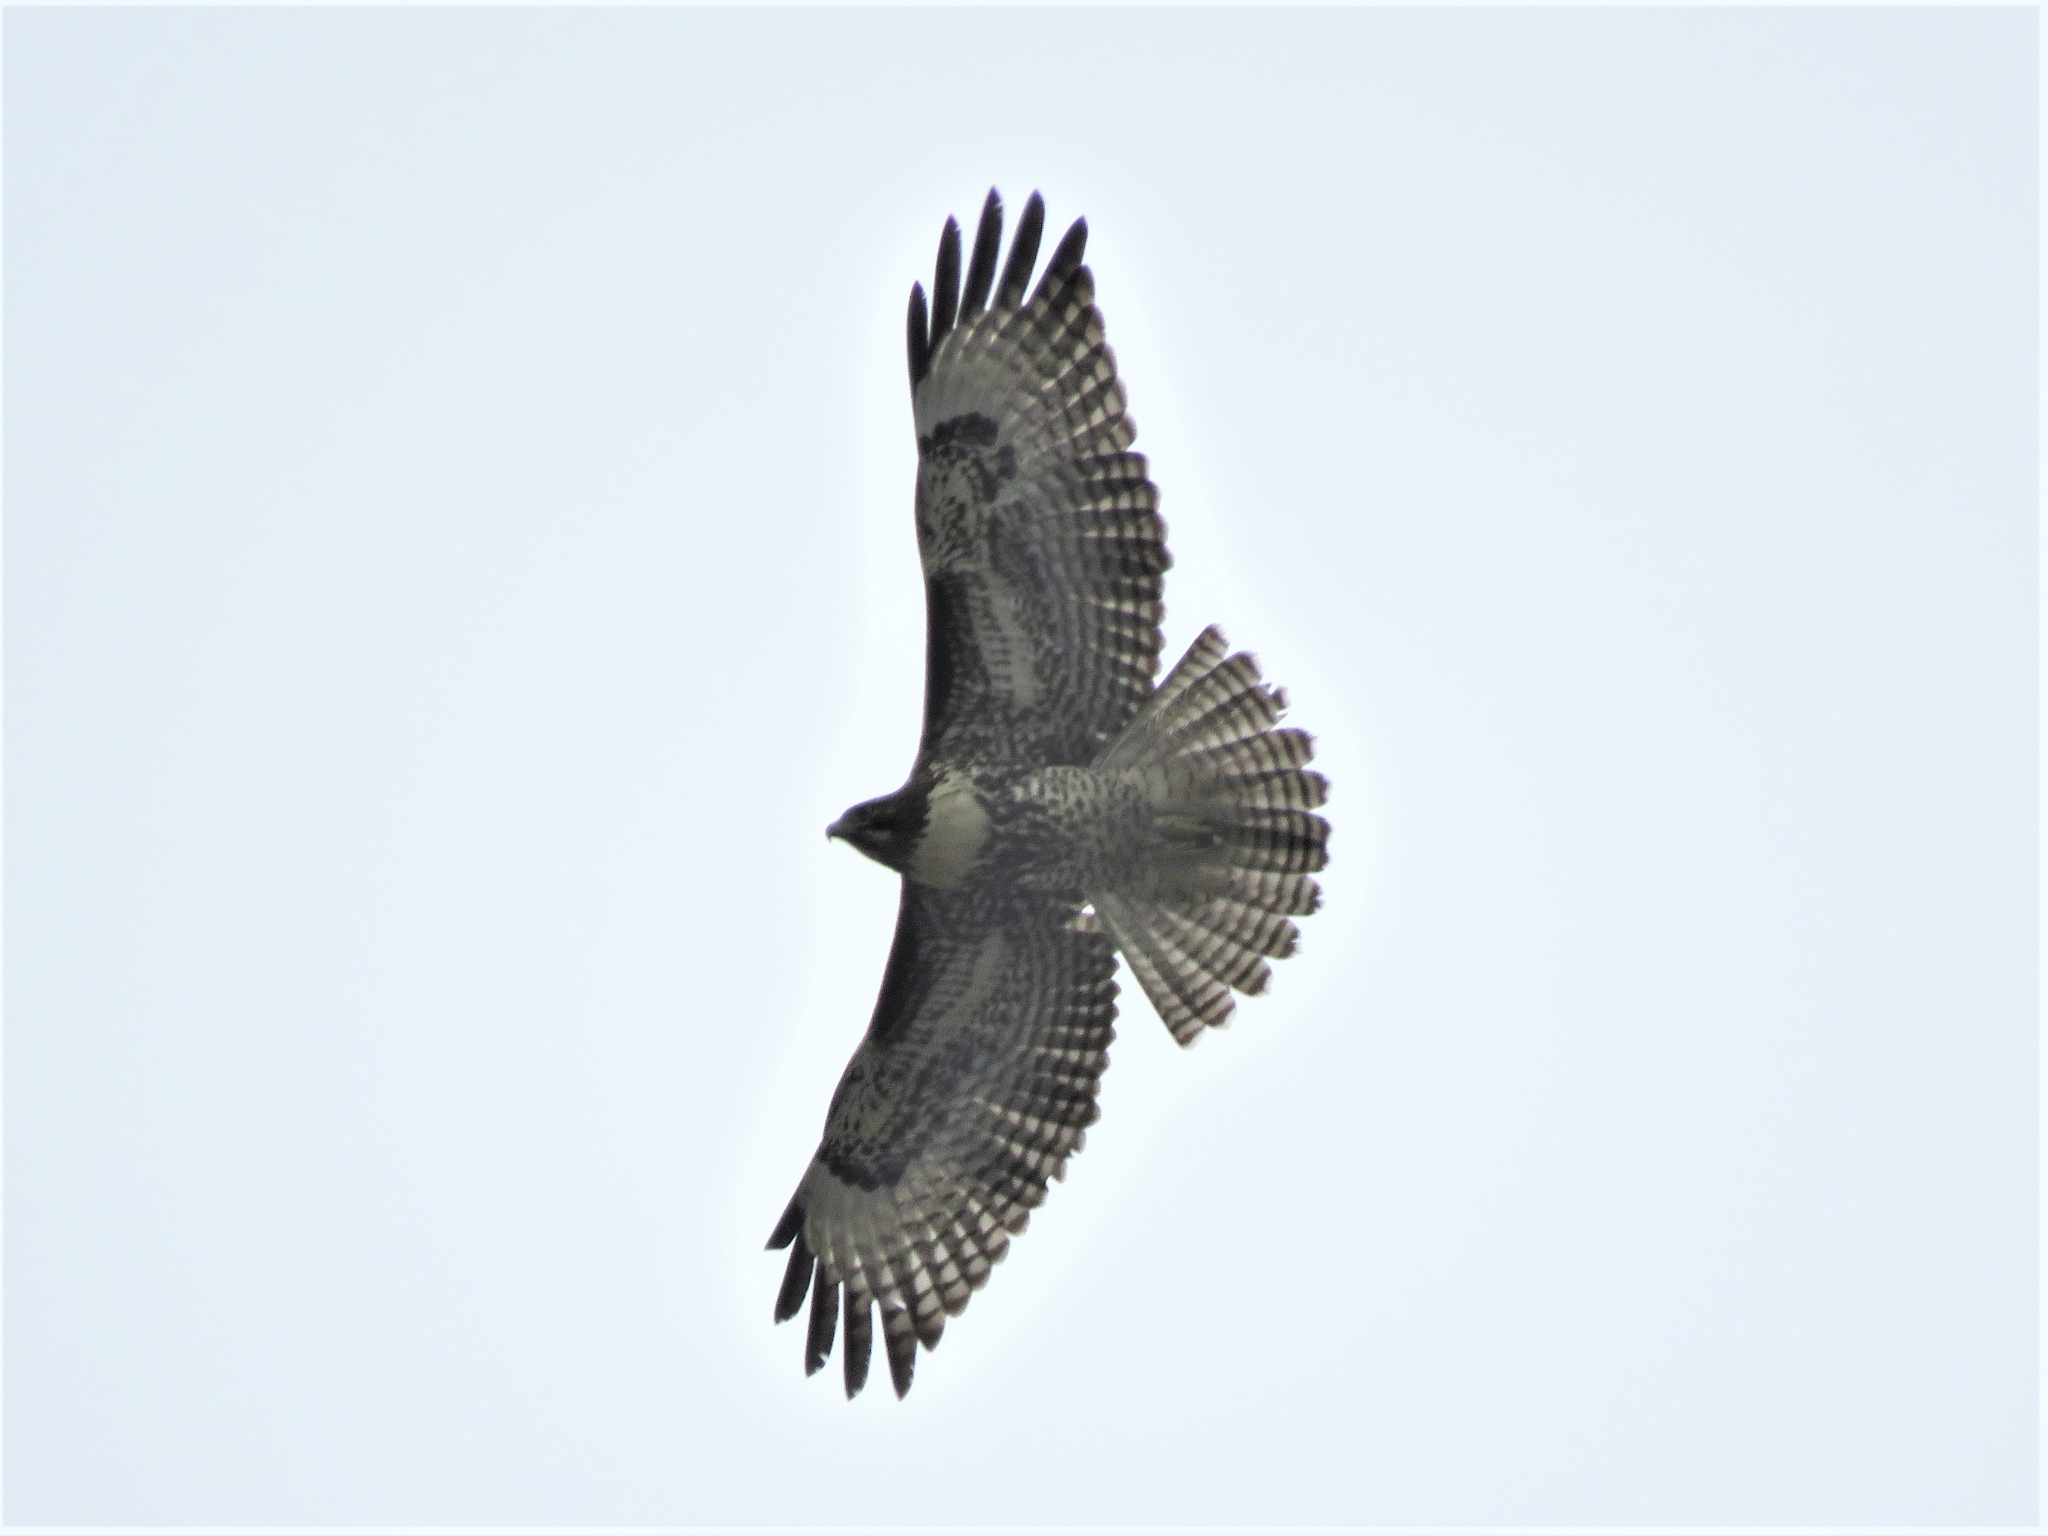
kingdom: Animalia
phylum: Chordata
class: Aves
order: Accipitriformes
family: Accipitridae
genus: Buteo
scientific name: Buteo jamaicensis
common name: Red-tailed hawk
